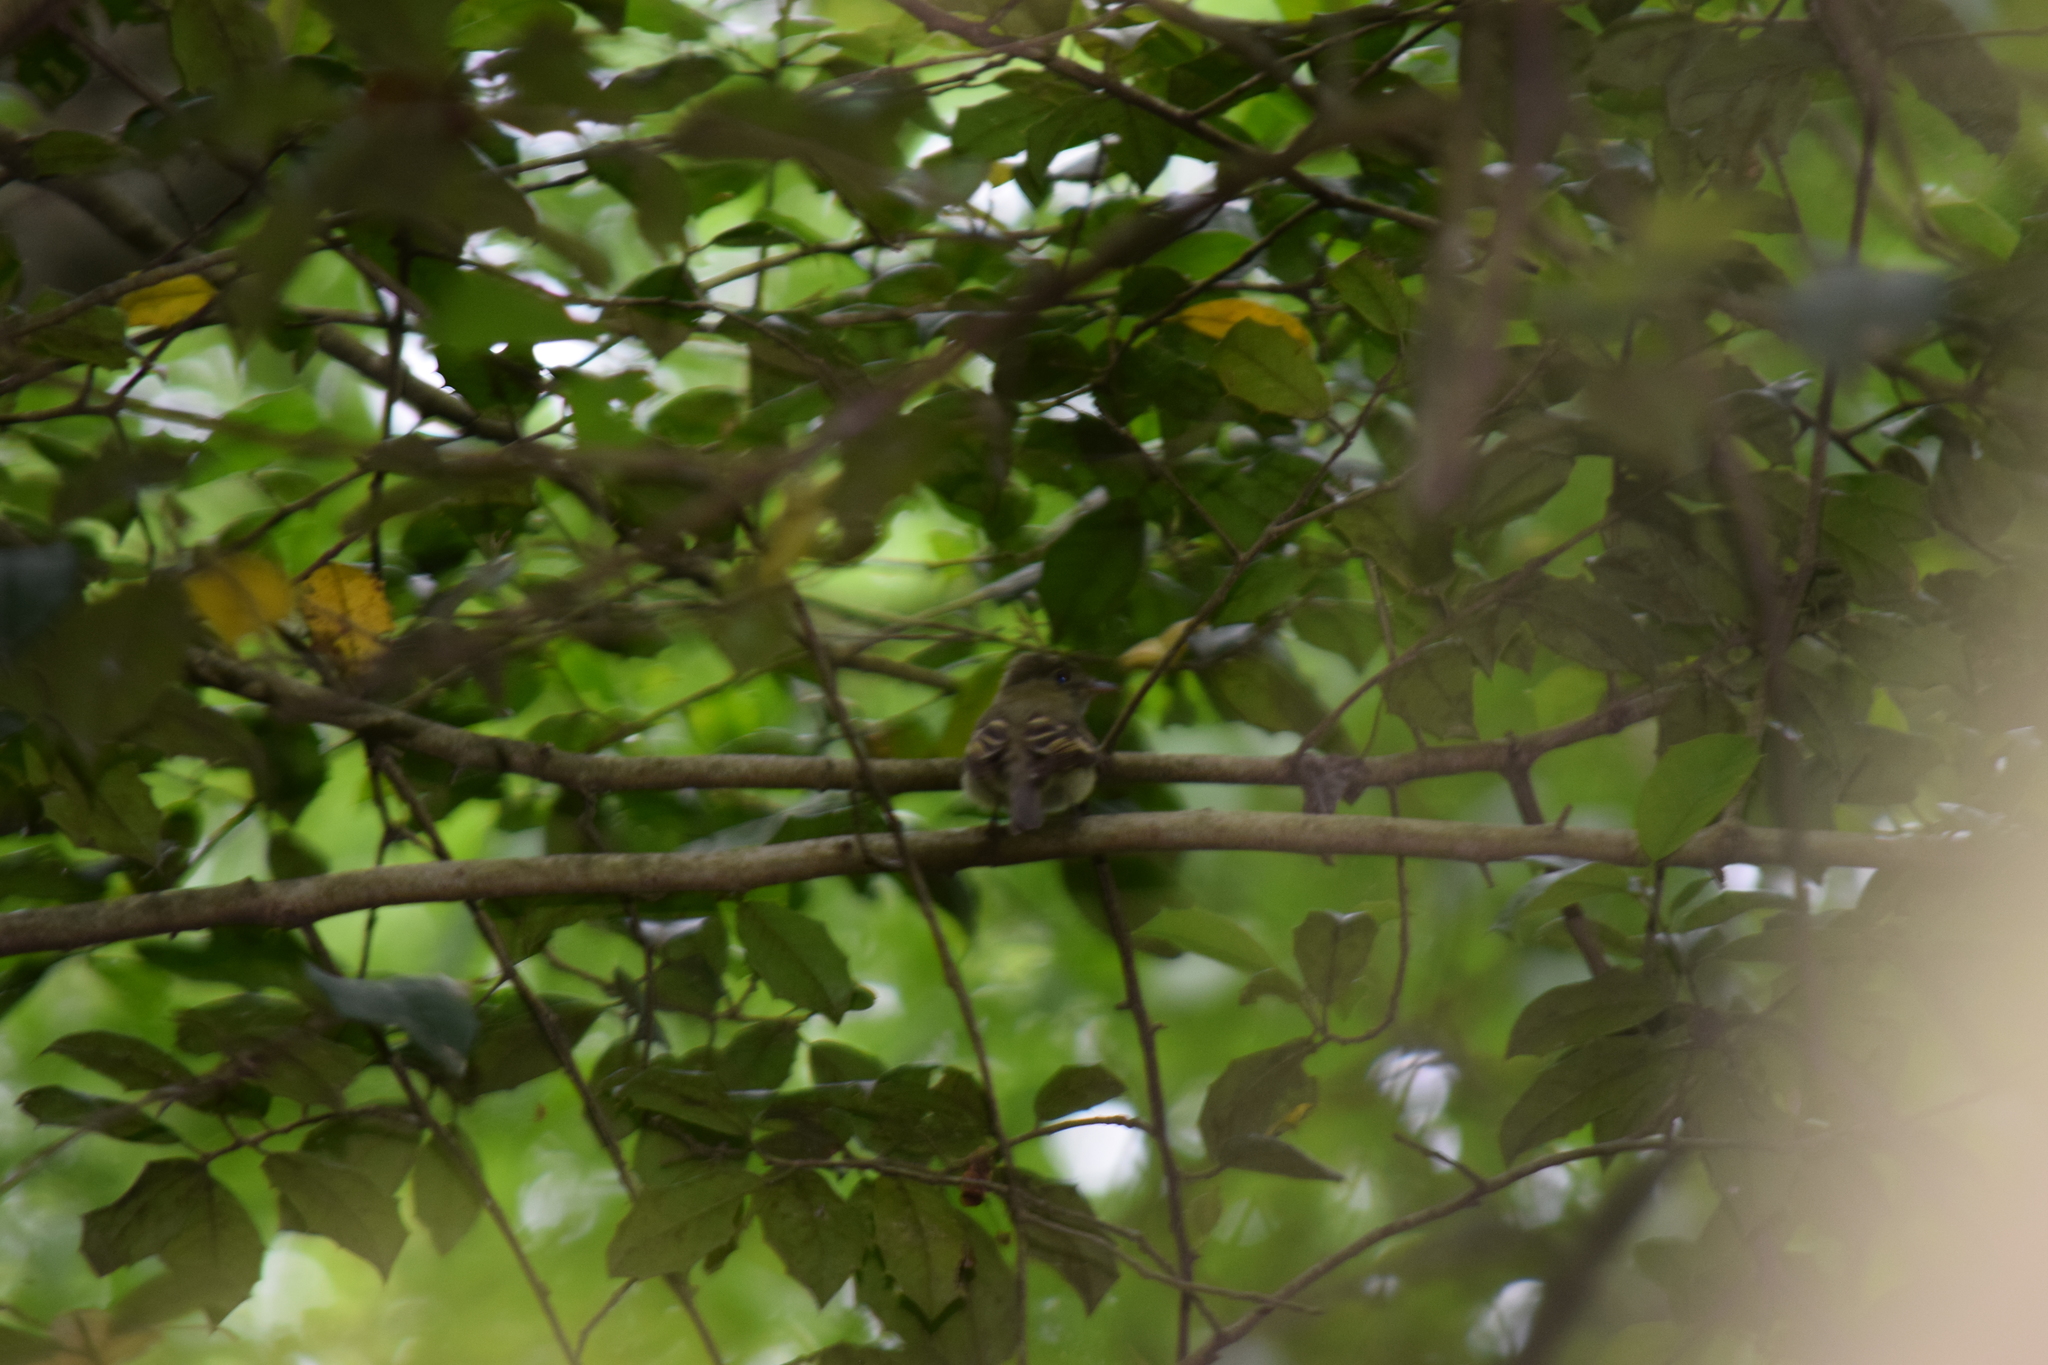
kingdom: Animalia
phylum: Chordata
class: Aves
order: Passeriformes
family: Tyrannidae
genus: Empidonax
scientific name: Empidonax virescens
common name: Acadian flycatcher
